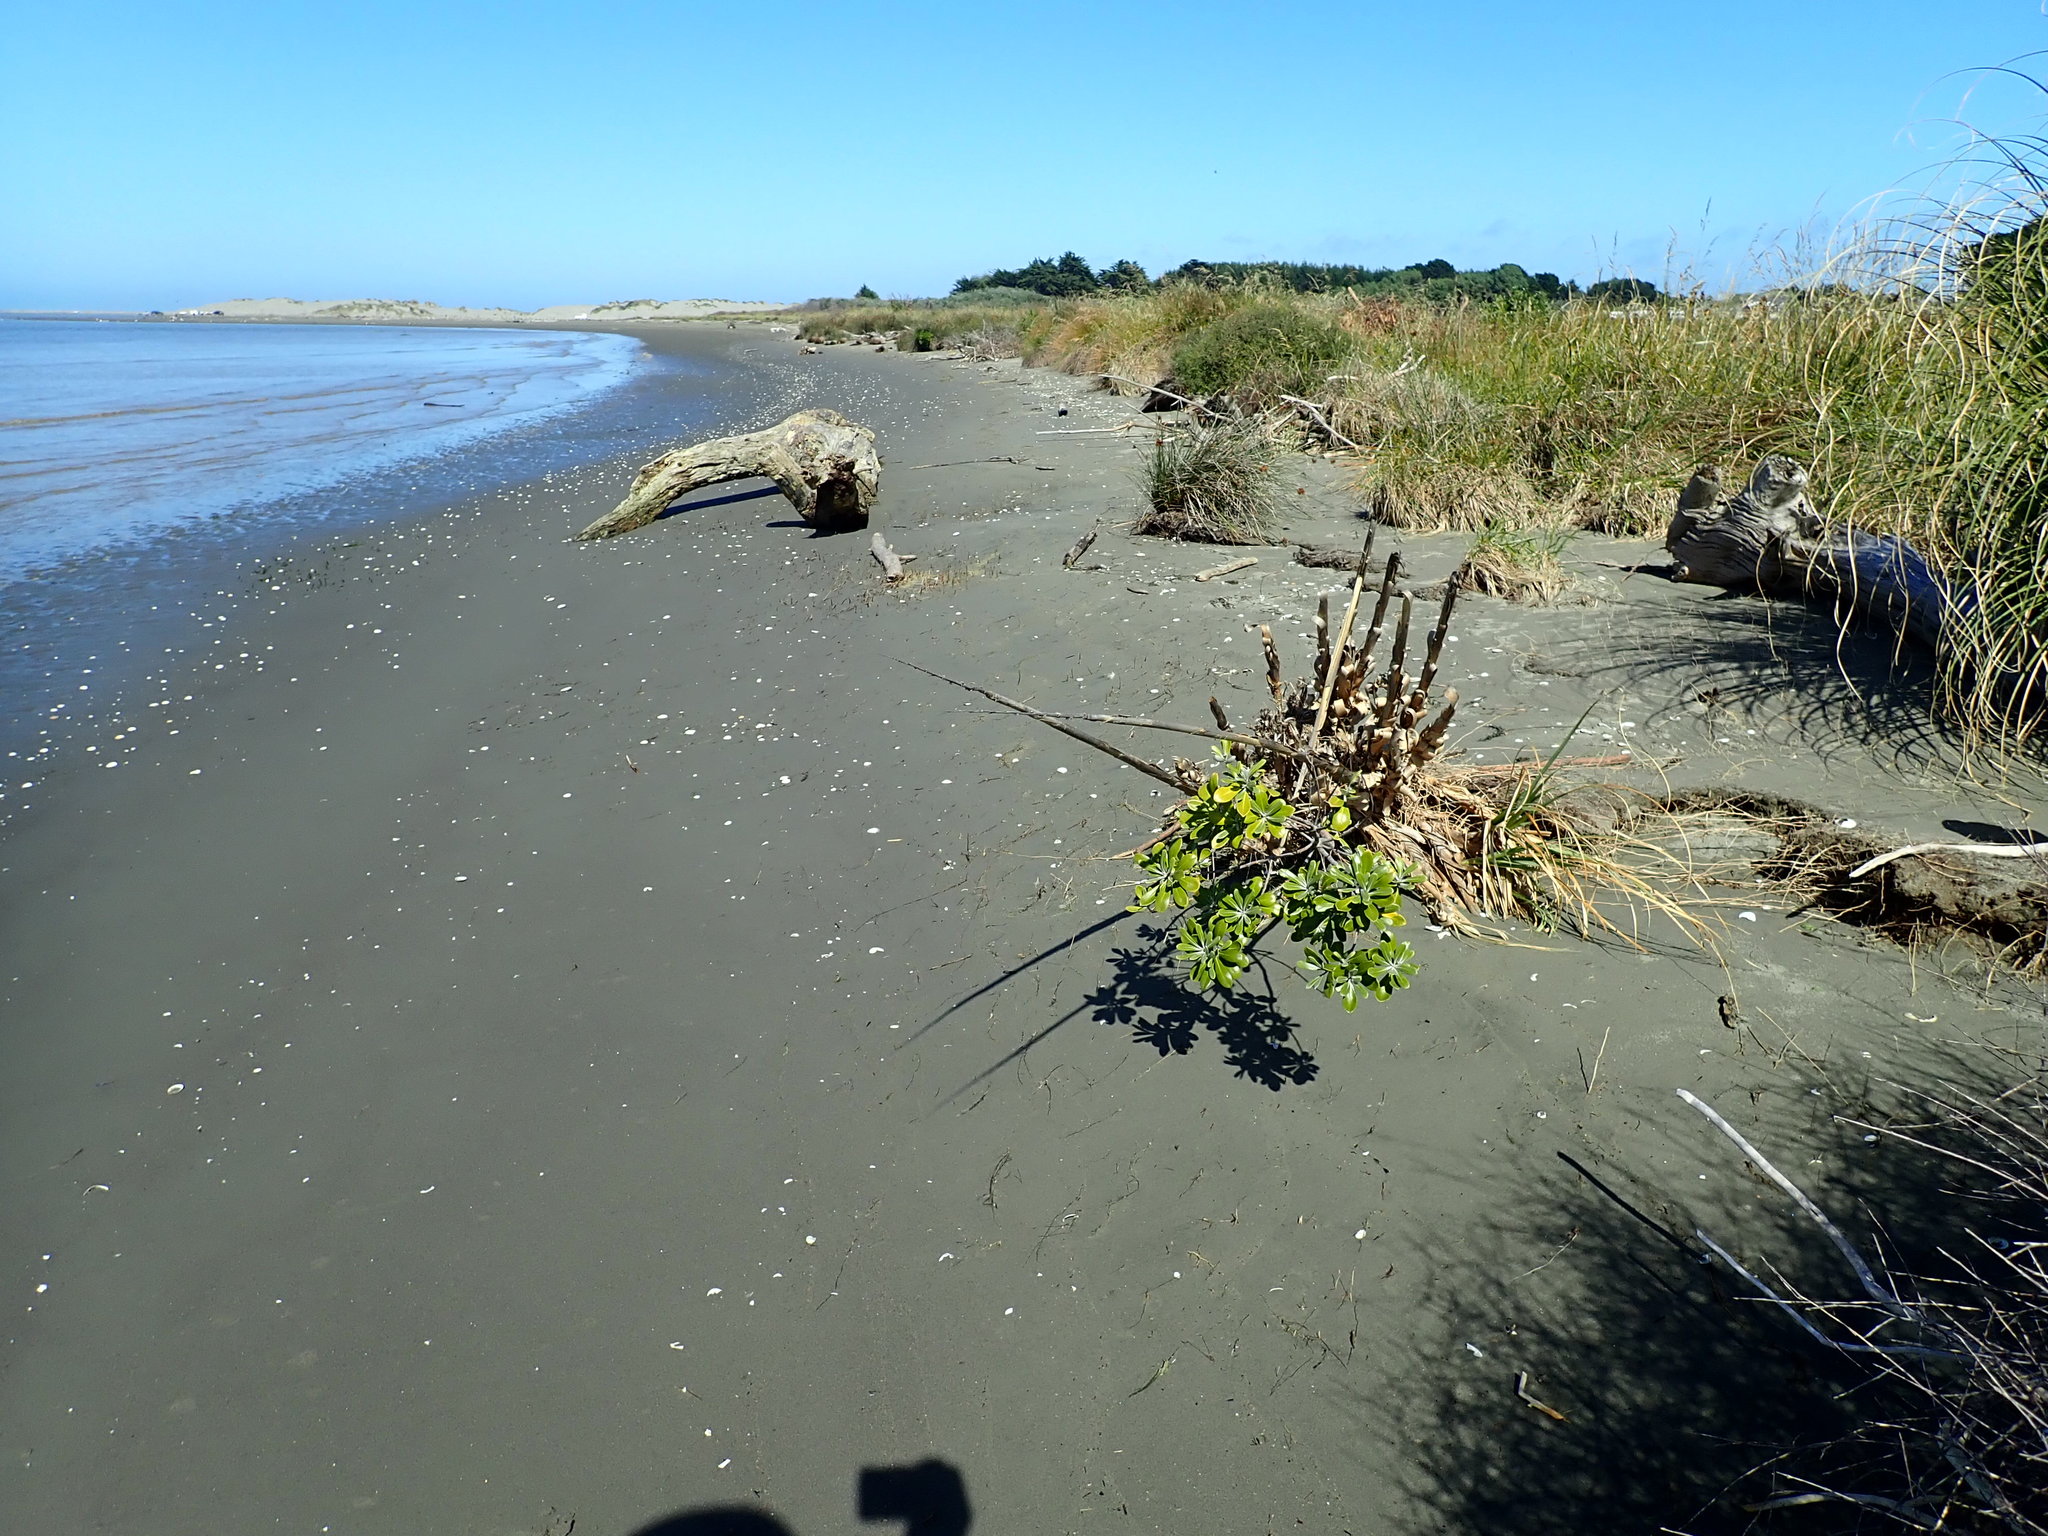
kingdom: Plantae
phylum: Tracheophyta
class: Magnoliopsida
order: Apiales
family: Pittosporaceae
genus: Pittosporum
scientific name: Pittosporum crassifolium
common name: Karo
